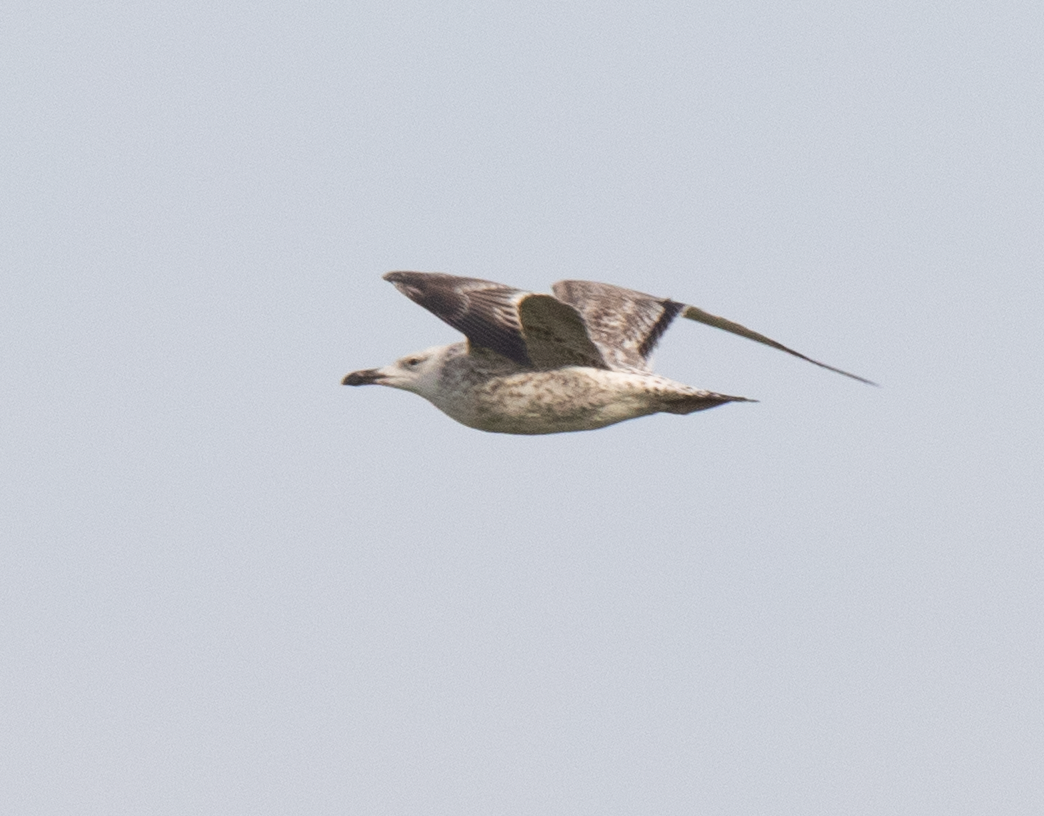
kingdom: Animalia
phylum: Chordata
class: Aves
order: Charadriiformes
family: Laridae
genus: Larus
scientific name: Larus michahellis
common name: Yellow-legged gull
